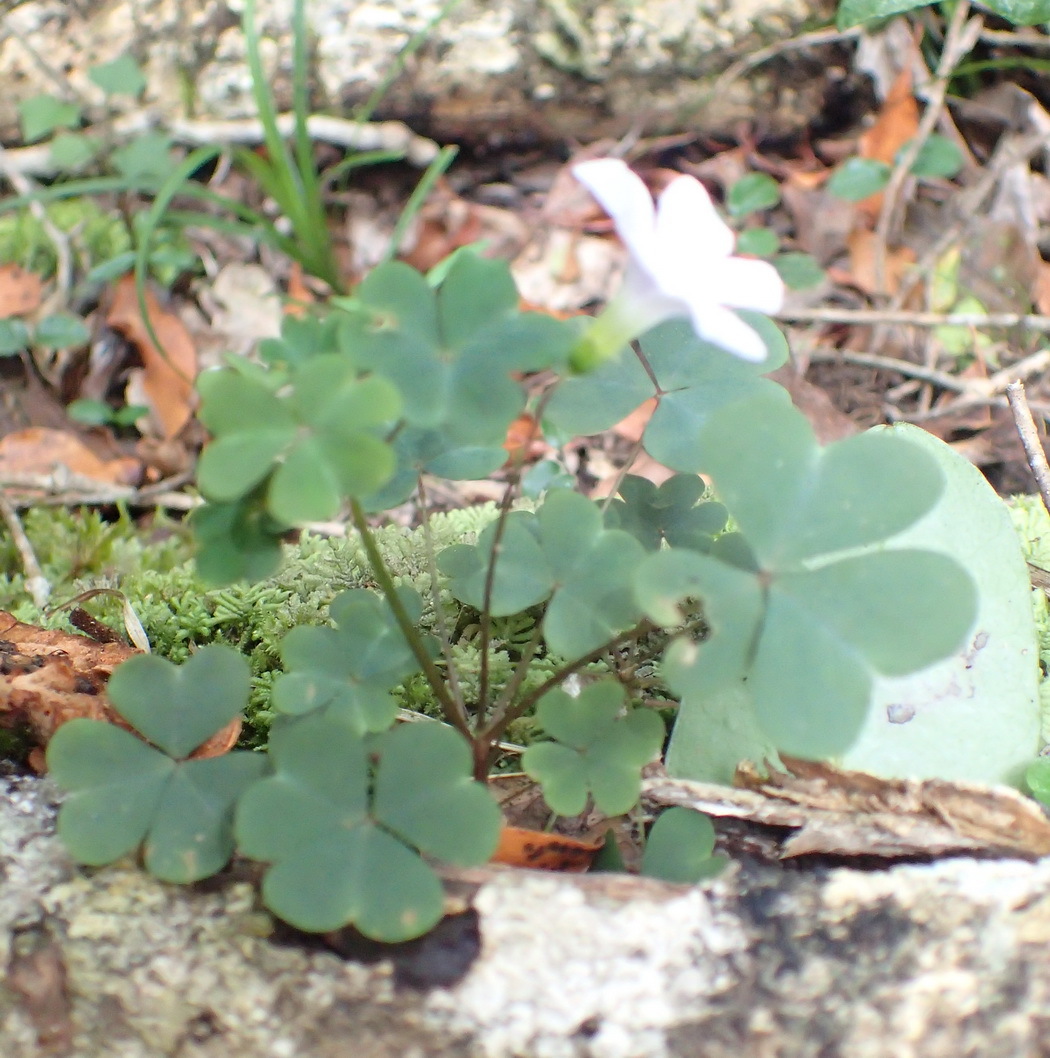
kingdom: Plantae
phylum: Tracheophyta
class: Magnoliopsida
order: Oxalidales
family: Oxalidaceae
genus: Oxalis
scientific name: Oxalis incarnata
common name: Pale pink-sorrel
